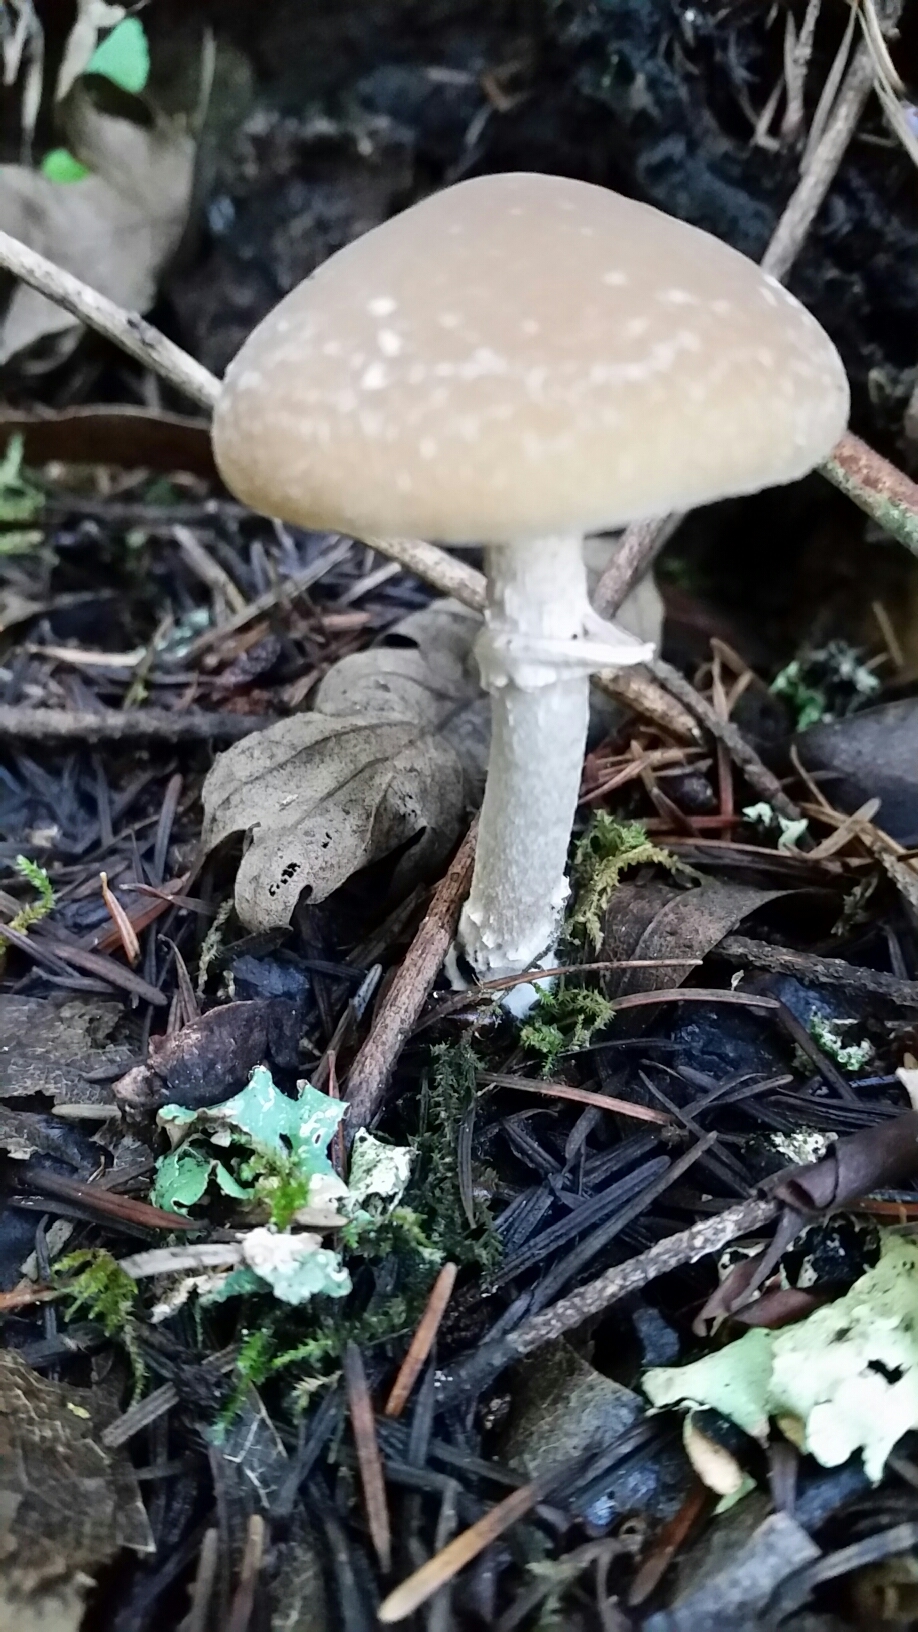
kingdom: Fungi
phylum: Basidiomycota
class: Agaricomycetes
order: Agaricales
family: Psathyrellaceae
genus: Psathyrella
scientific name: Psathyrella longistriata
